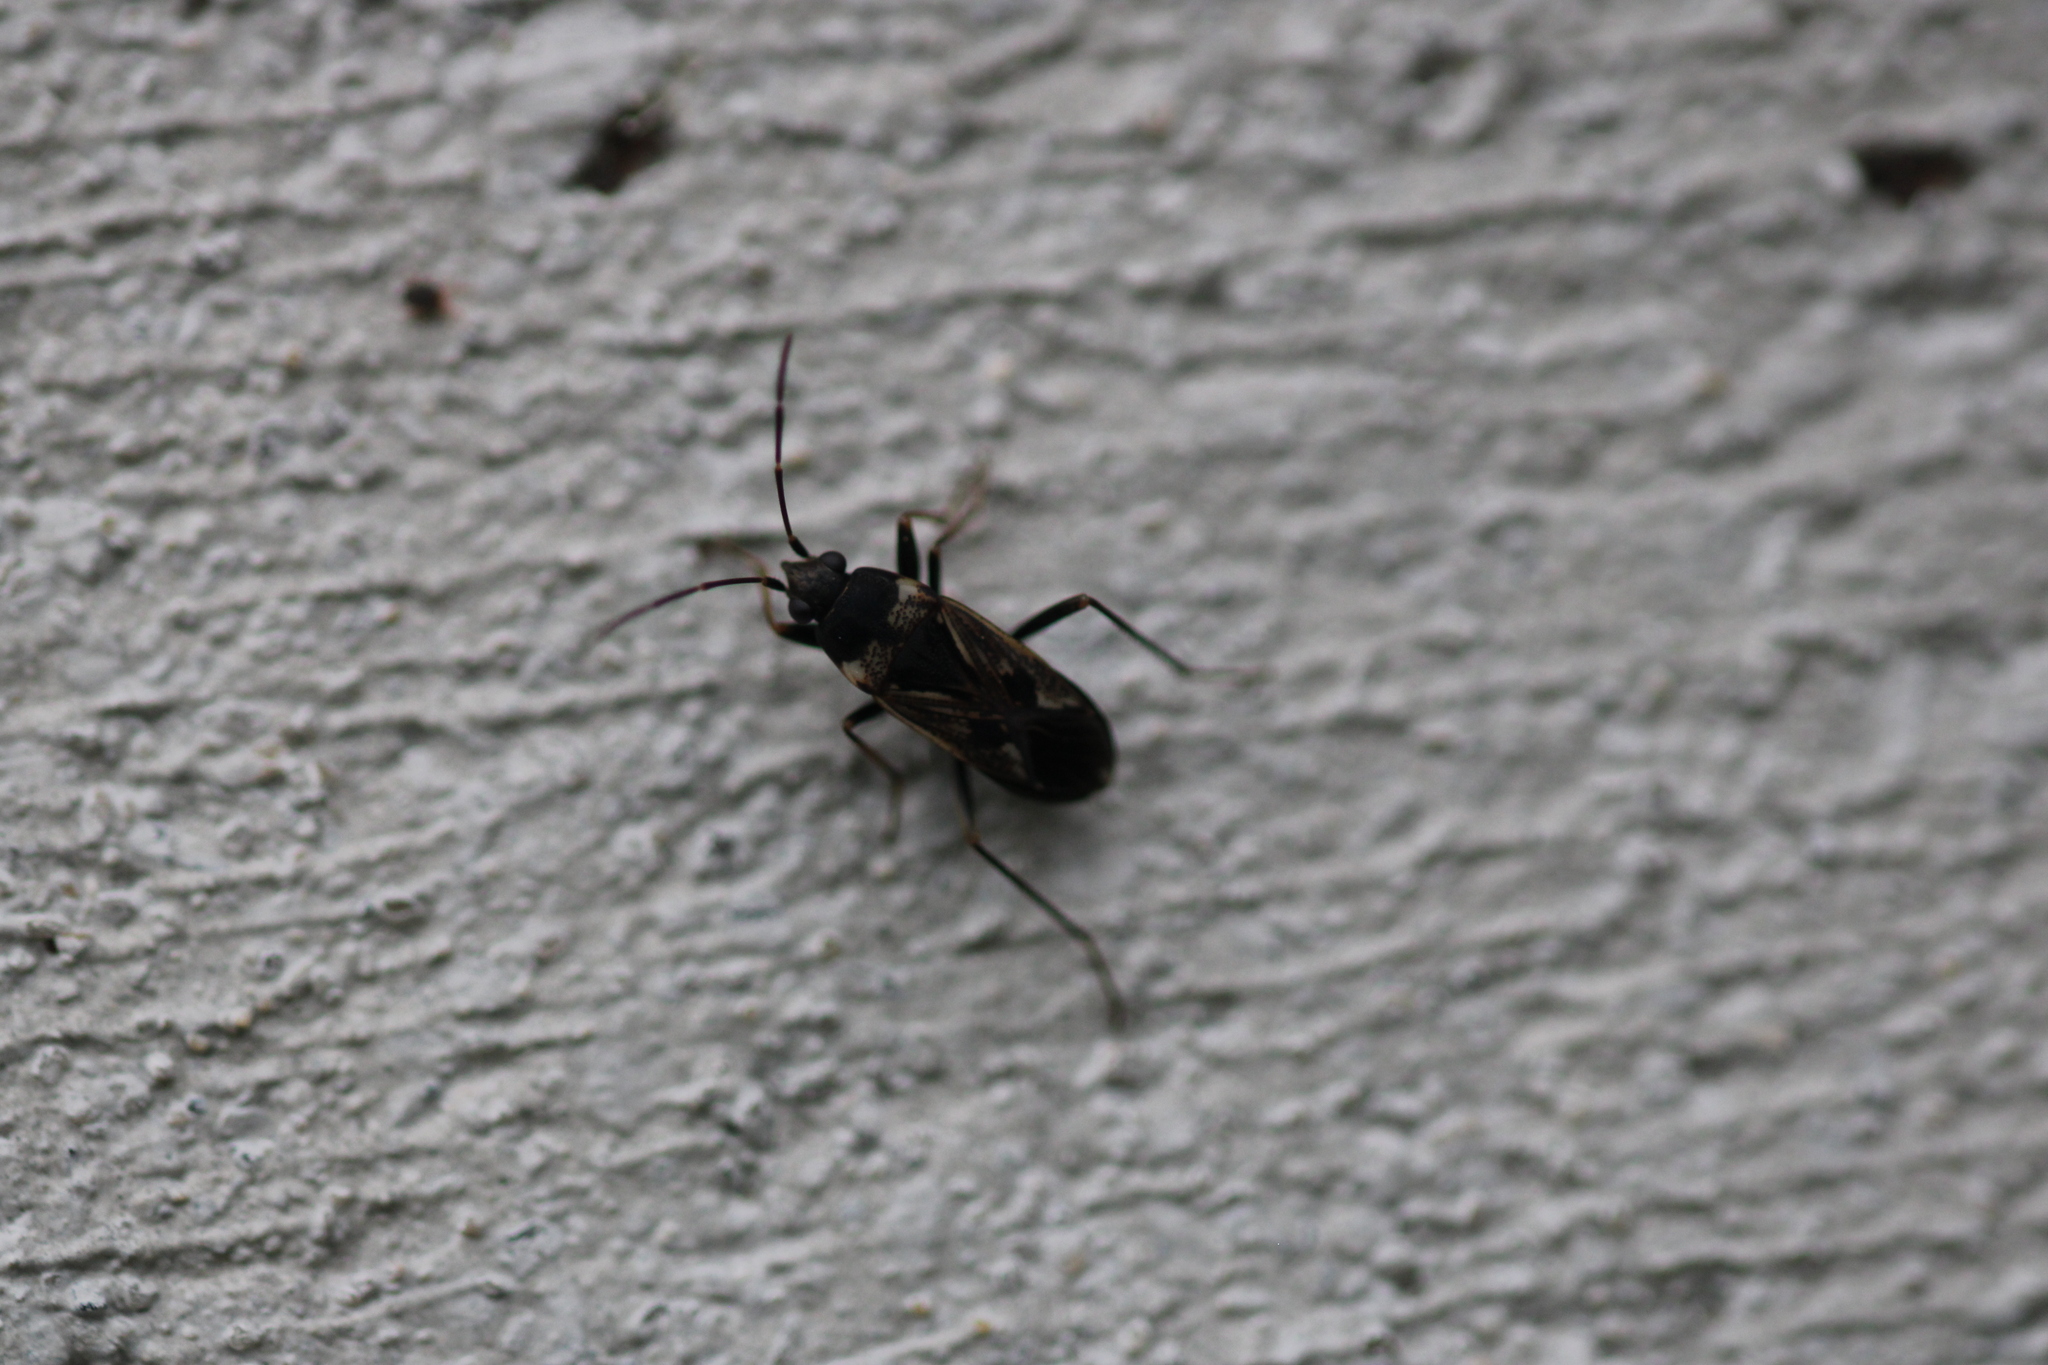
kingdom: Animalia
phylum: Arthropoda
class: Insecta
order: Hemiptera
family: Rhyparochromidae
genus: Rhyparochromus
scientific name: Rhyparochromus vulgaris
